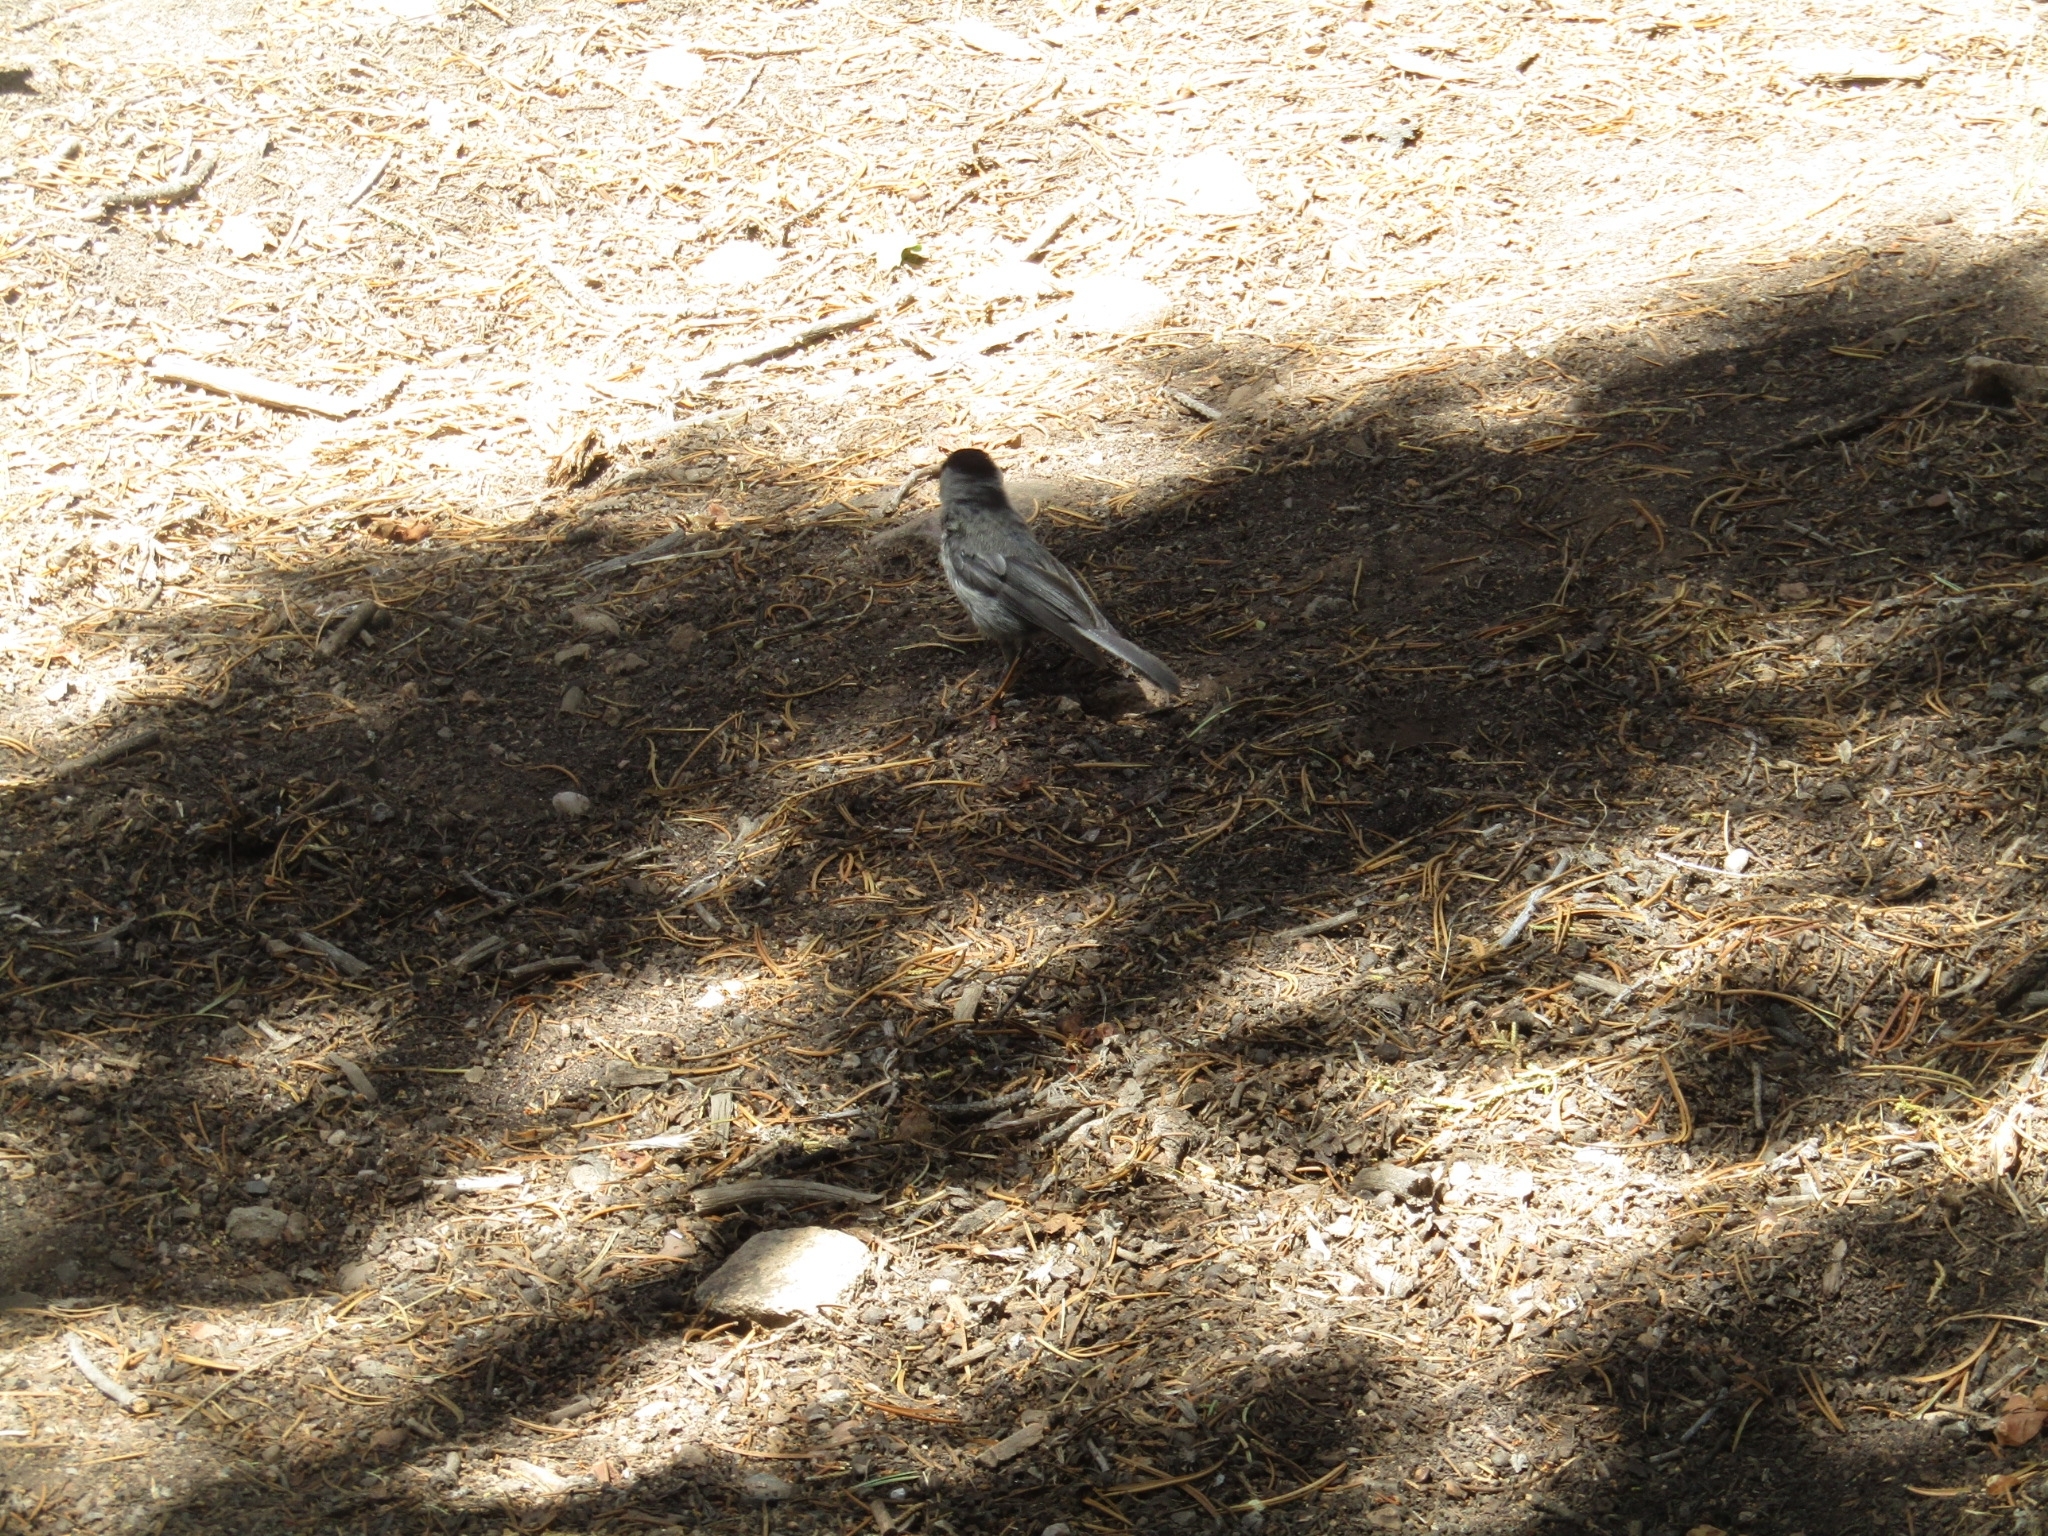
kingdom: Animalia
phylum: Chordata
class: Aves
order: Passeriformes
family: Paridae
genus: Poecile
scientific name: Poecile gambeli
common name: Mountain chickadee
